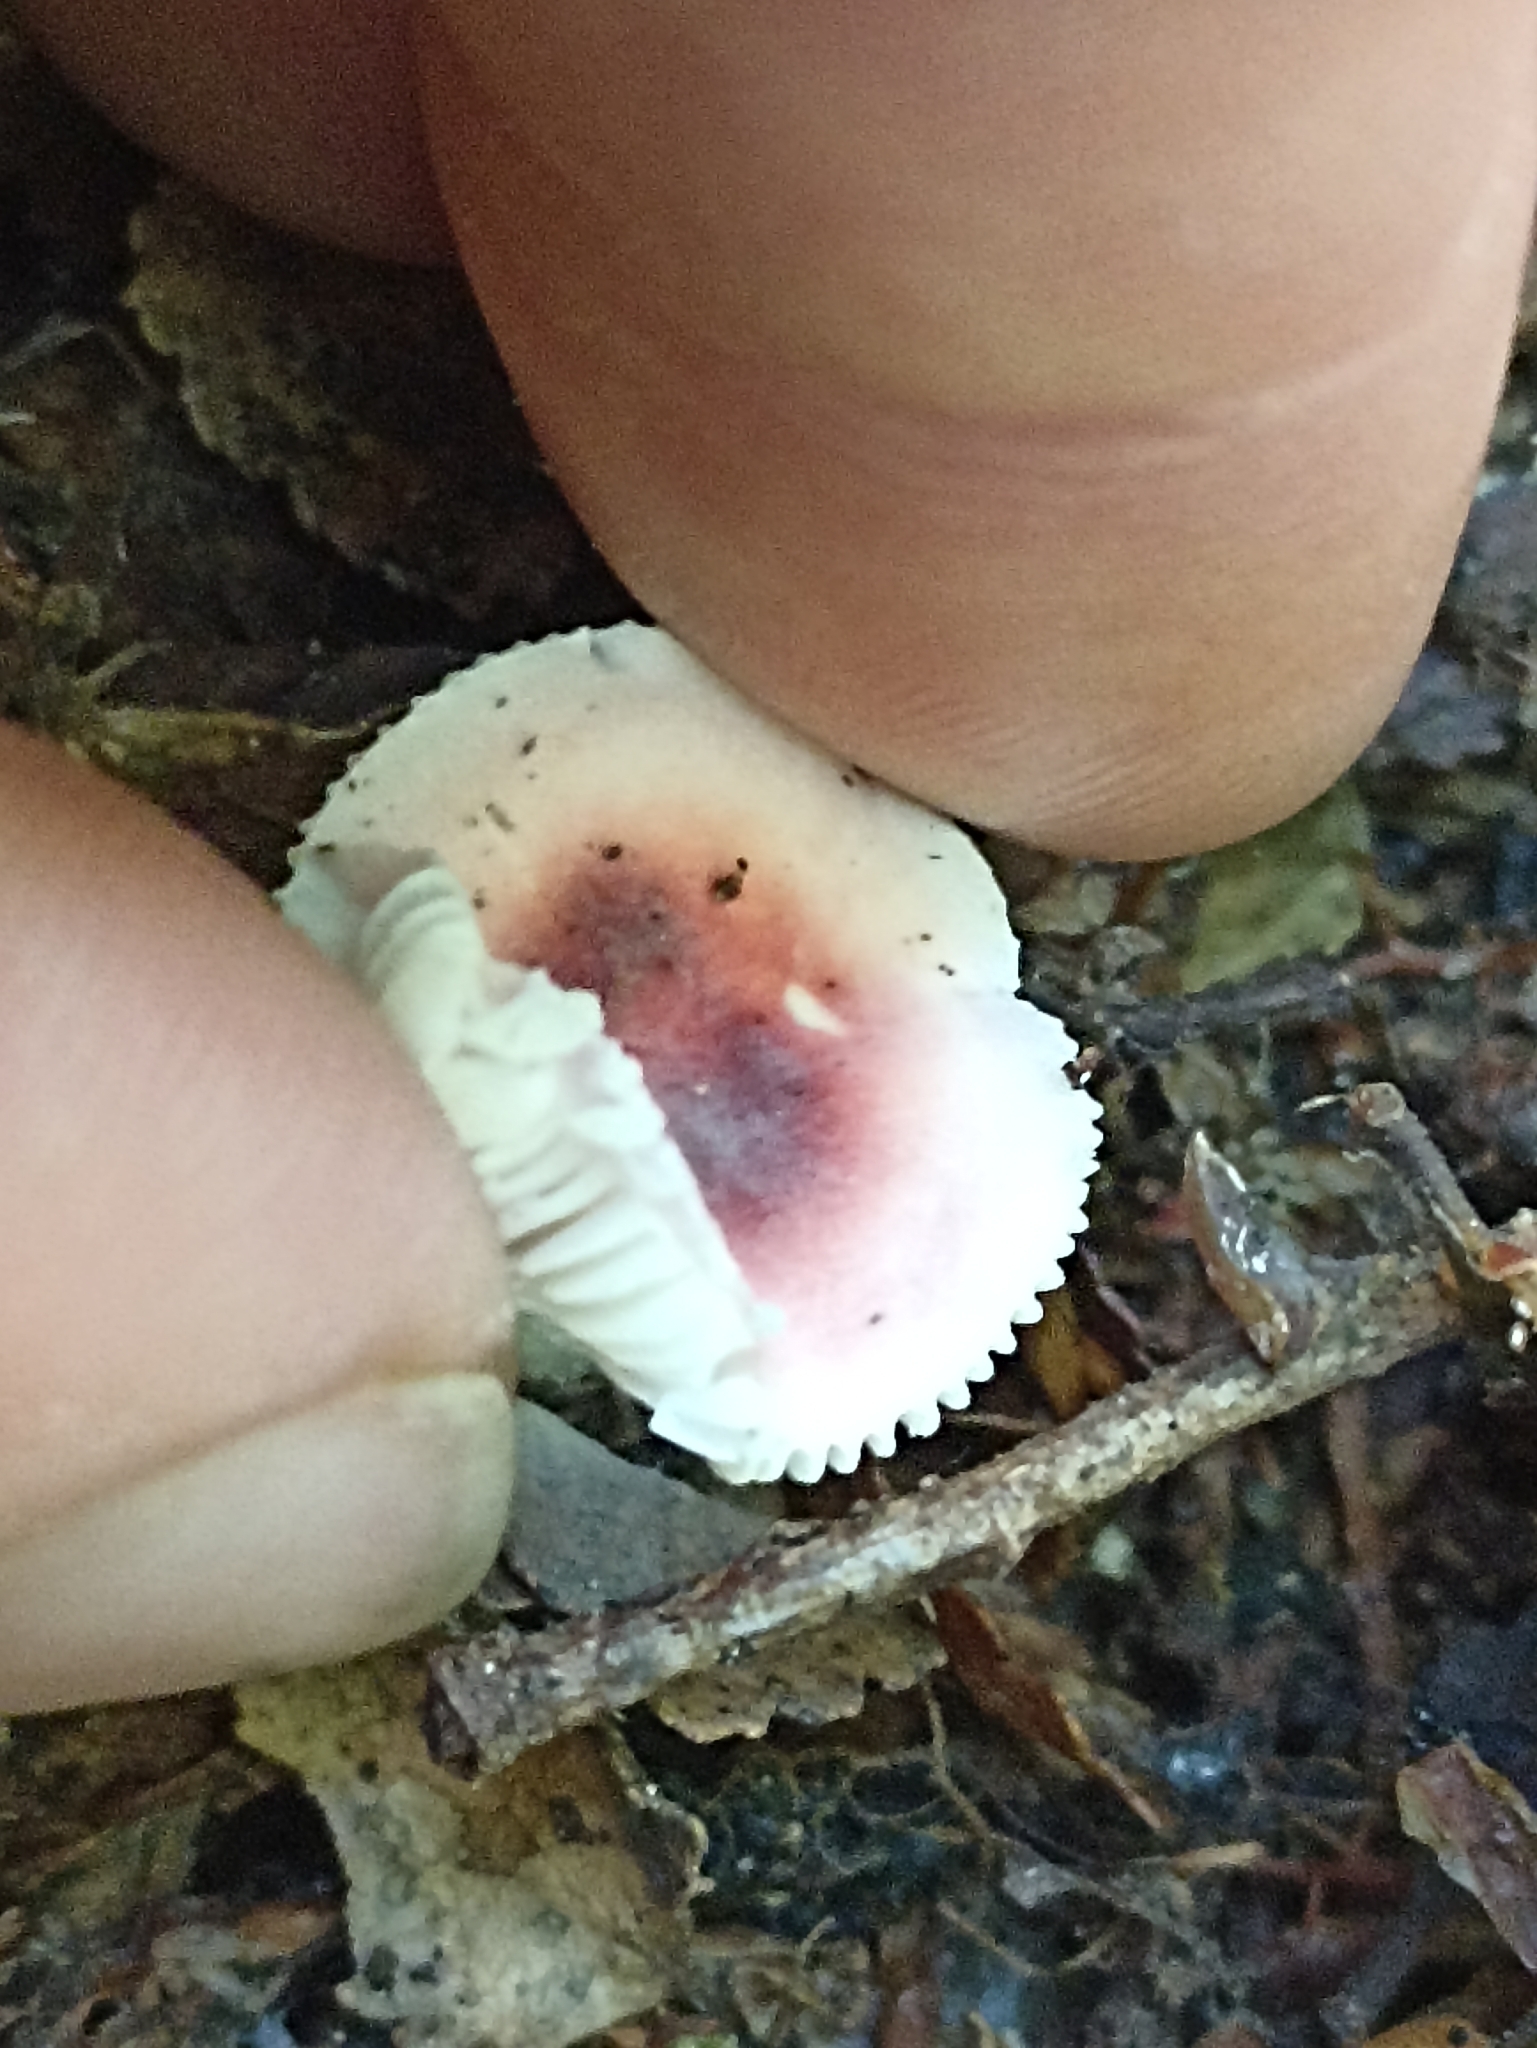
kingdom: Fungi
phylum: Basidiomycota
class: Agaricomycetes
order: Russulales
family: Russulaceae
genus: Russula
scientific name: Russula roseopileata
